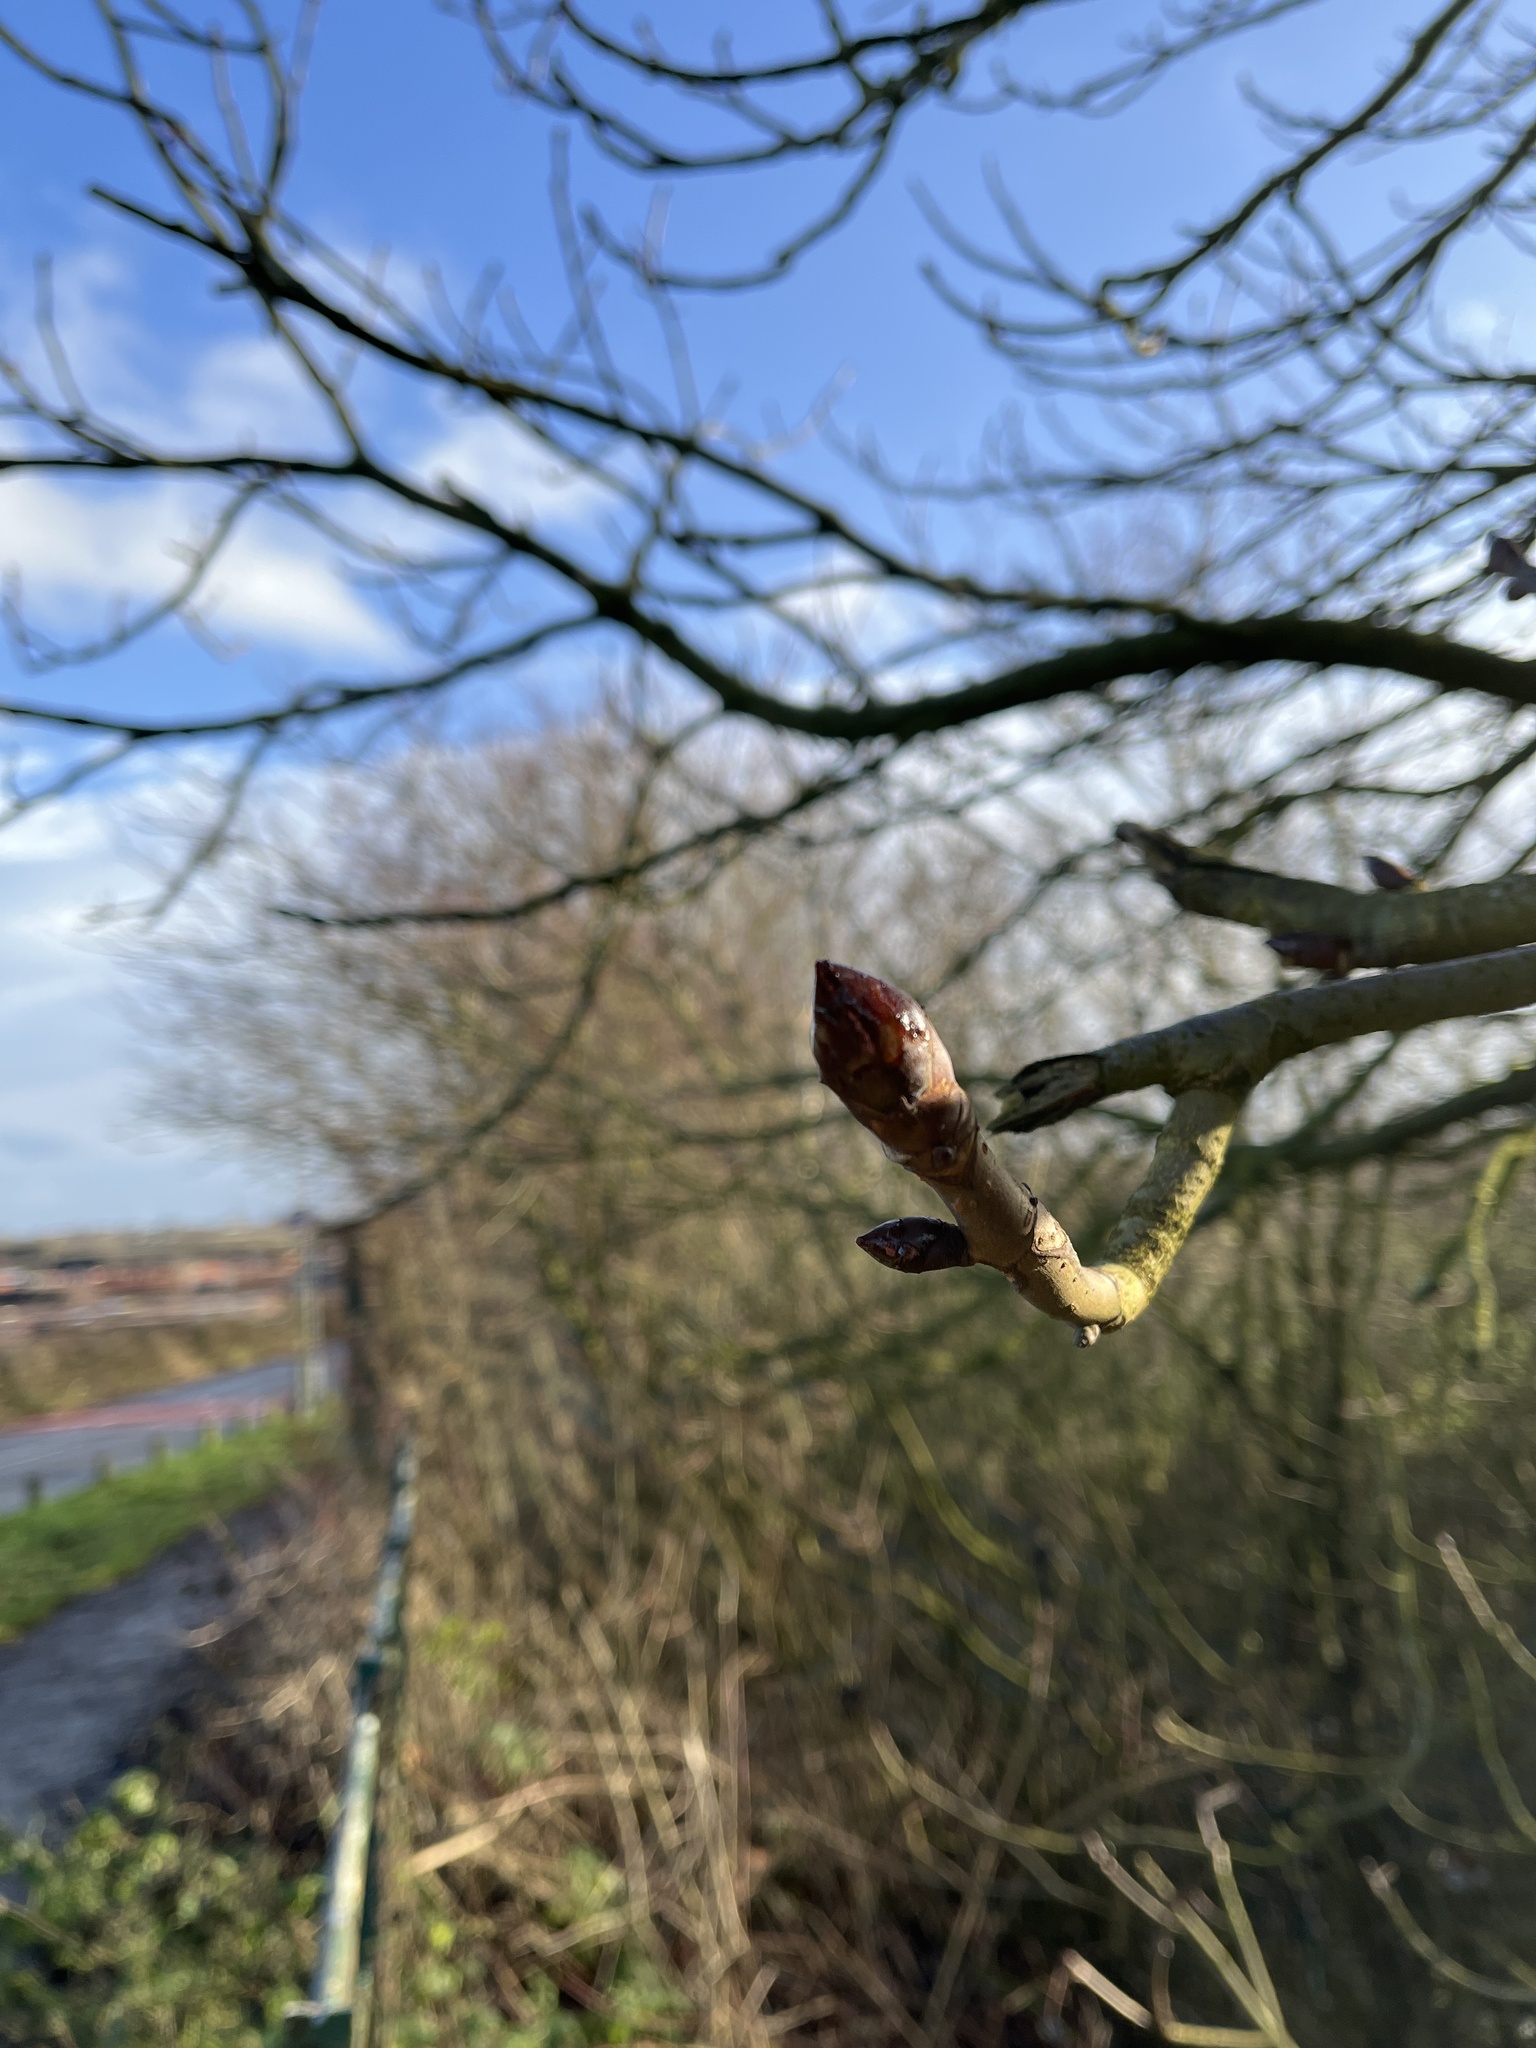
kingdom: Plantae
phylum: Tracheophyta
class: Magnoliopsida
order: Sapindales
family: Sapindaceae
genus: Aesculus
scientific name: Aesculus hippocastanum
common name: Horse-chestnut
